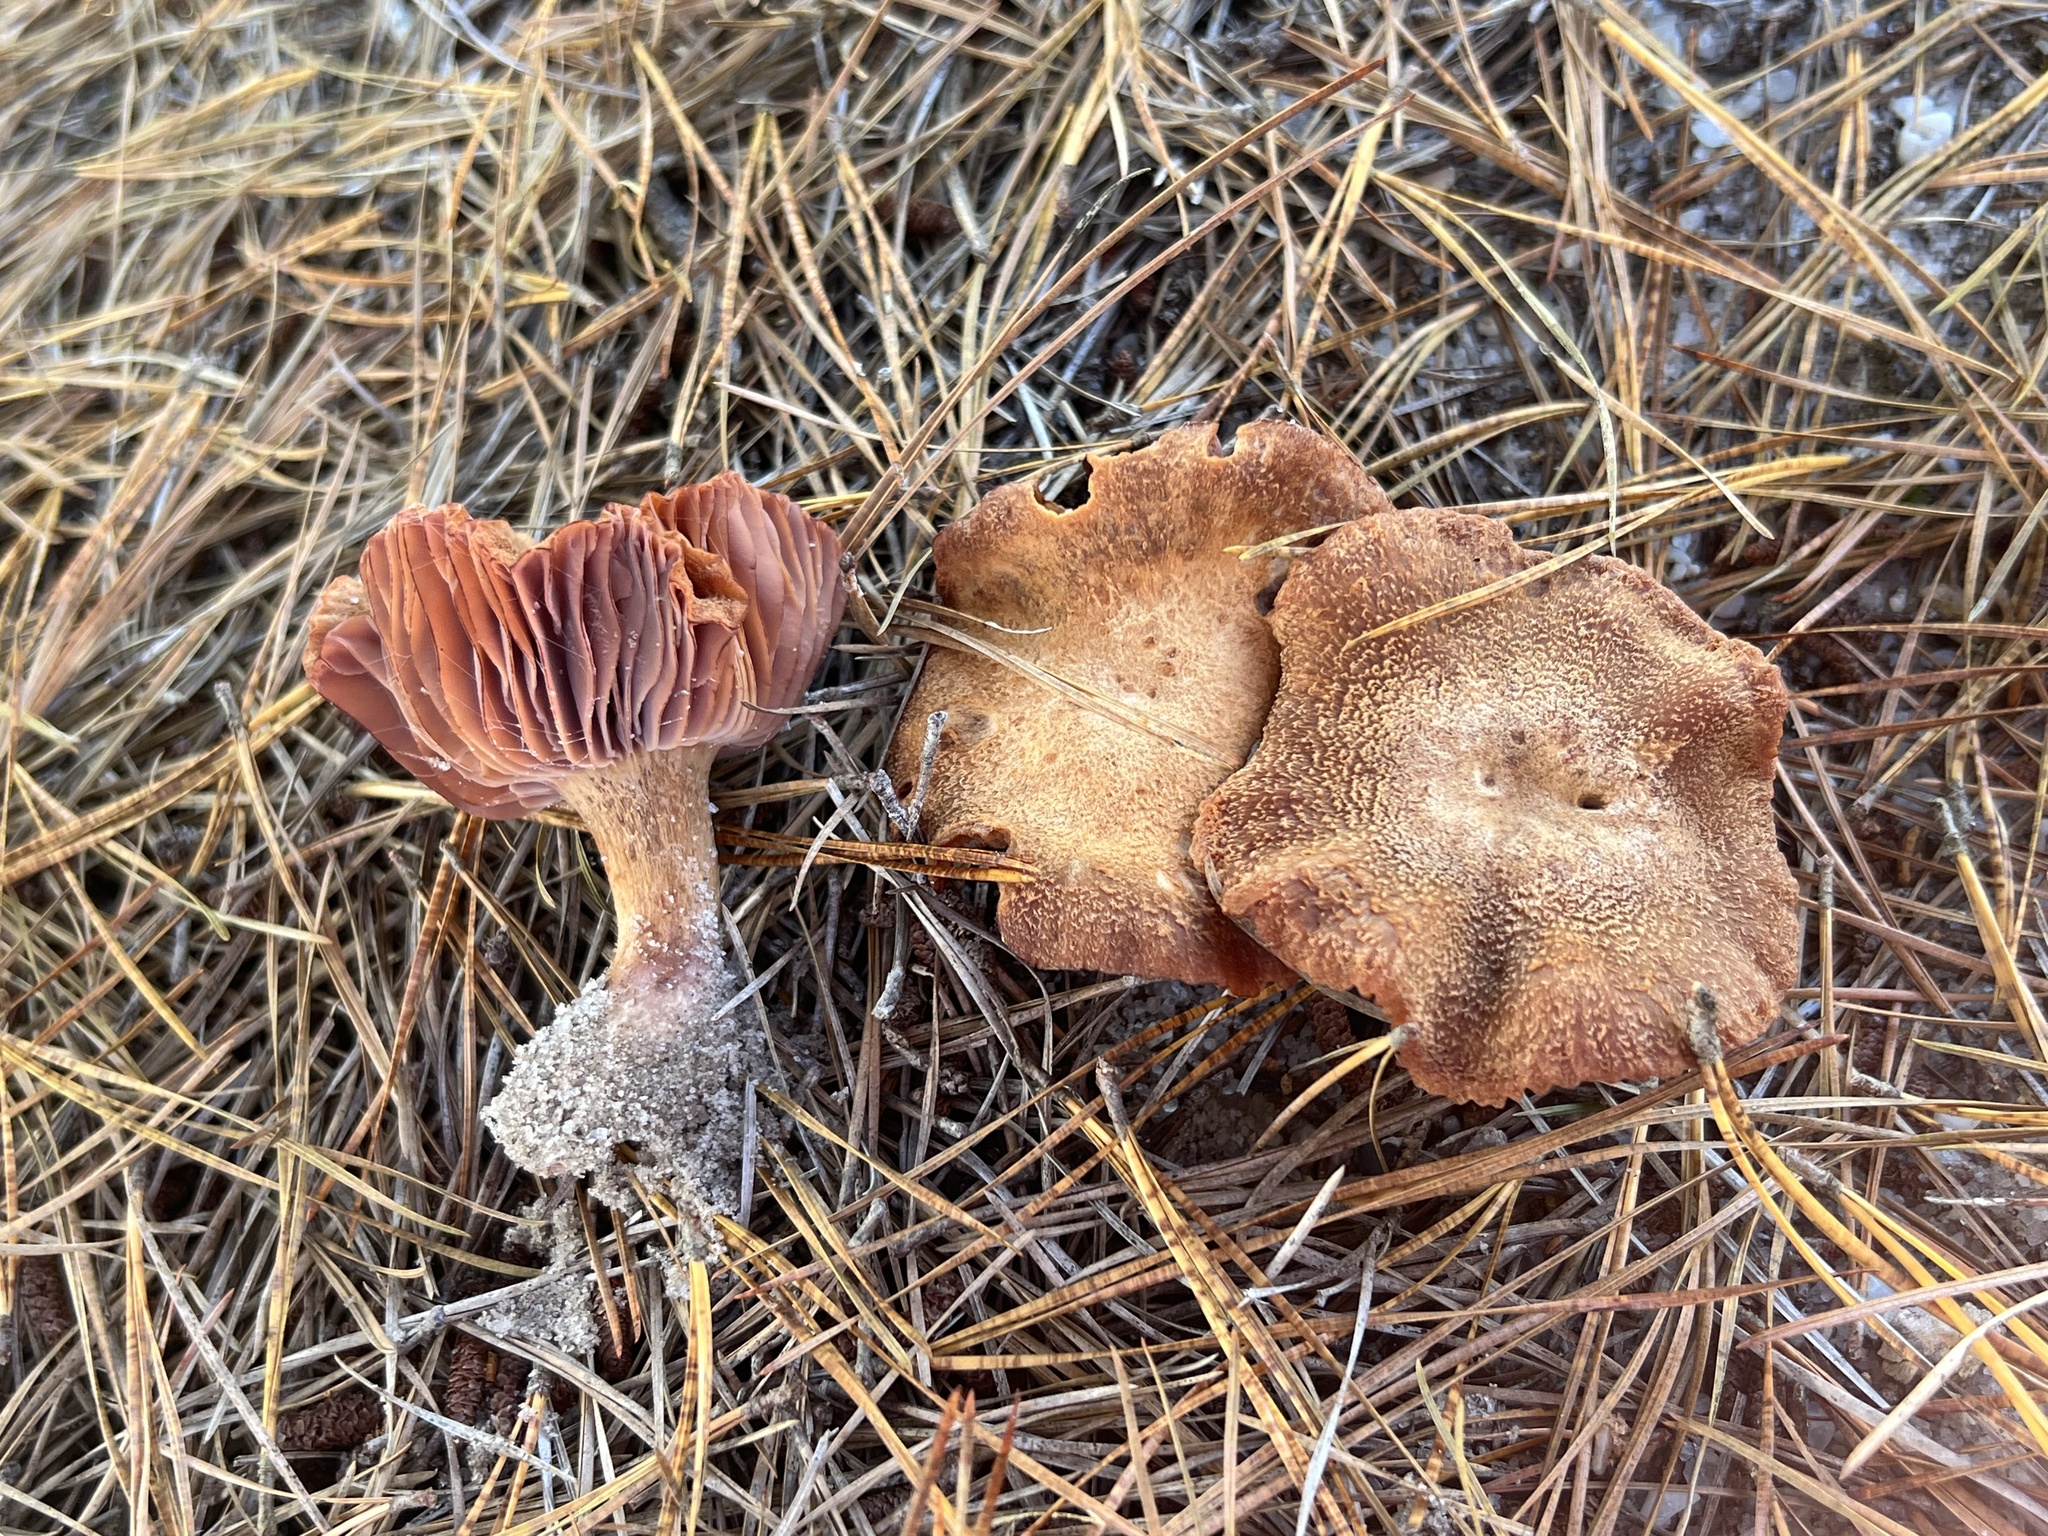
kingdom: Fungi
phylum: Basidiomycota
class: Agaricomycetes
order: Agaricales
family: Hydnangiaceae
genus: Laccaria
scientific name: Laccaria trullissata
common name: Sandy laccaria
